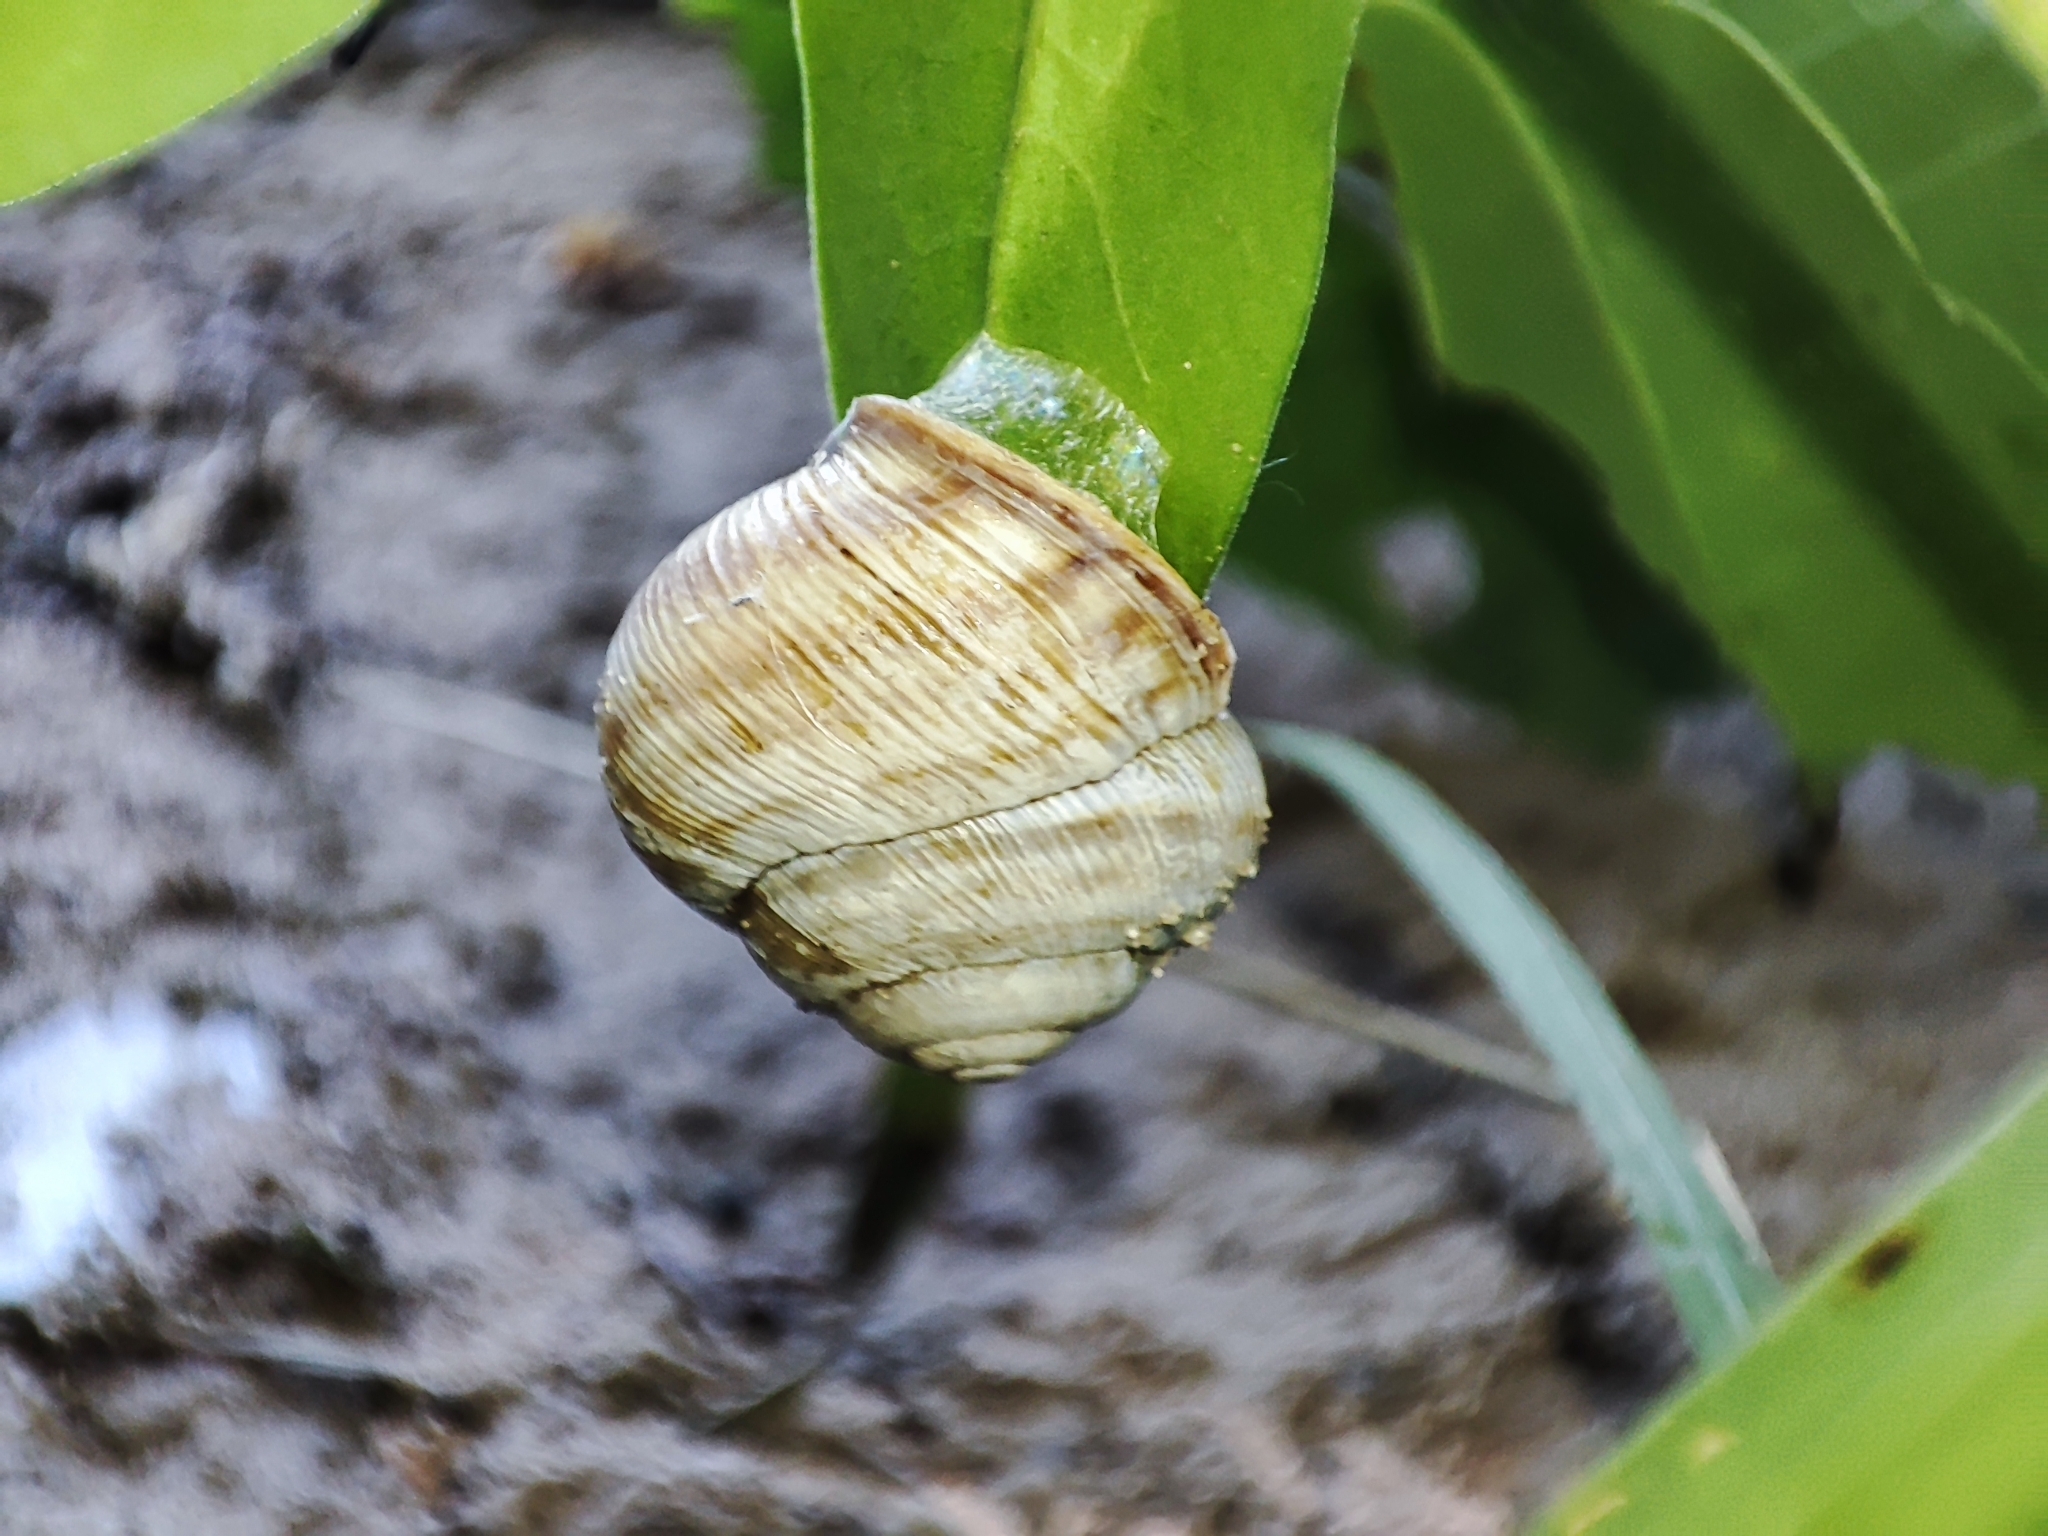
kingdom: Animalia
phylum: Mollusca
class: Gastropoda
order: Stylommatophora
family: Helicidae
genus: Caucasotachea
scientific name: Caucasotachea vindobonensis
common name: European helicid land snail
